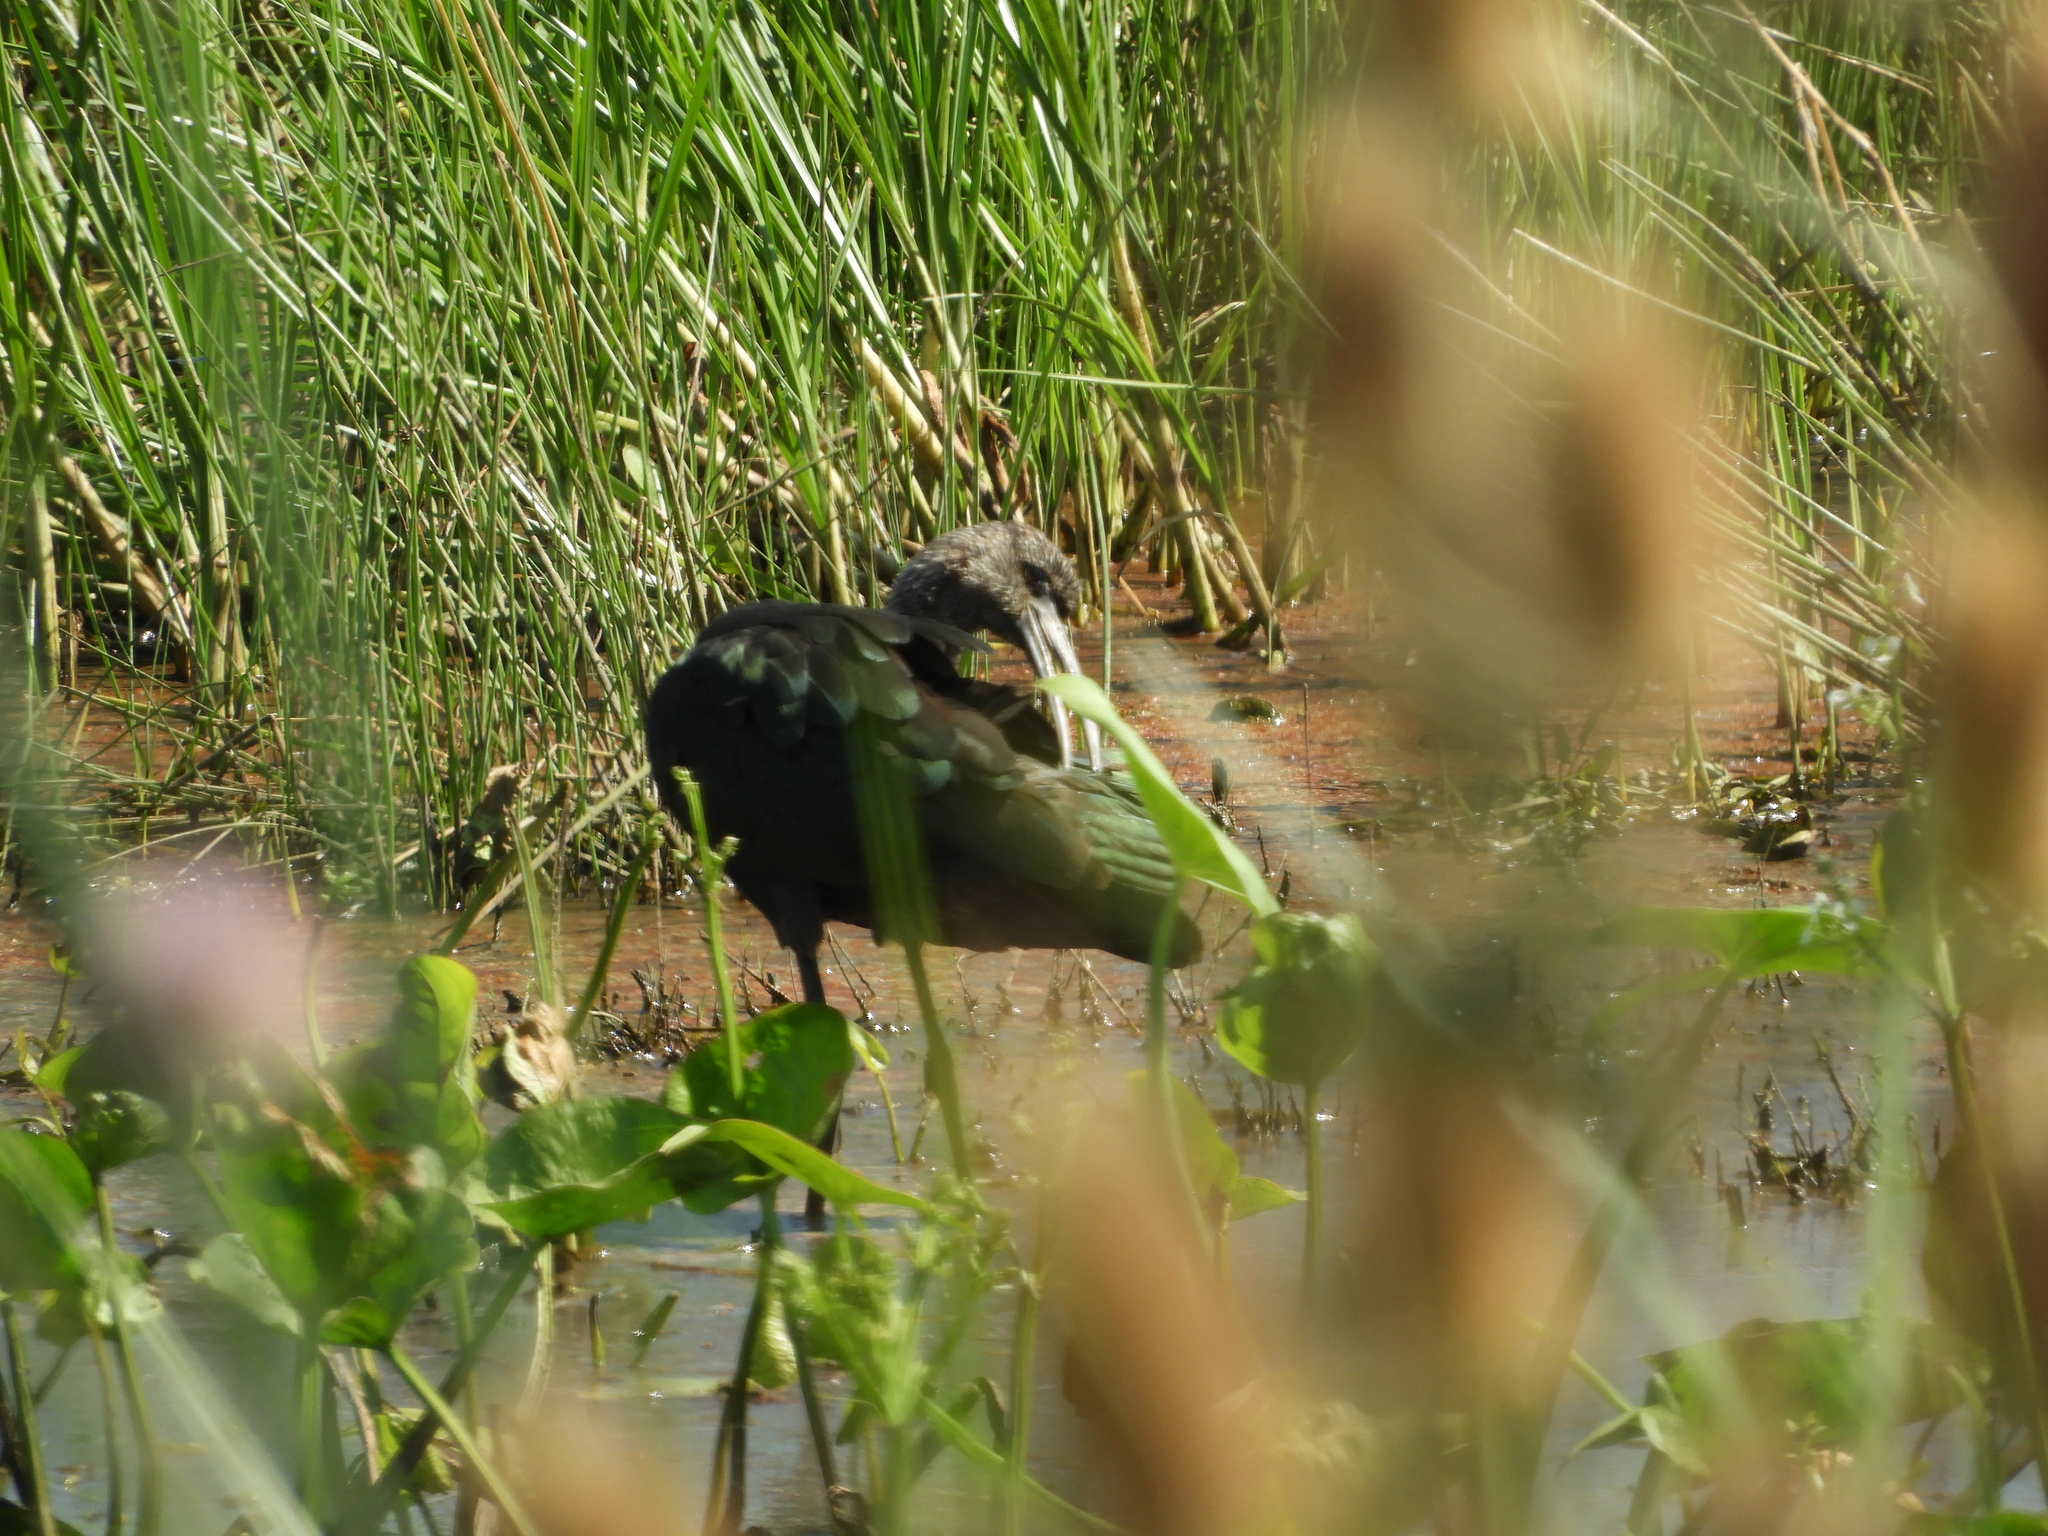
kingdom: Animalia
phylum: Chordata
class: Aves
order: Pelecaniformes
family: Threskiornithidae
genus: Plegadis
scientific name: Plegadis chihi
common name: White-faced ibis
